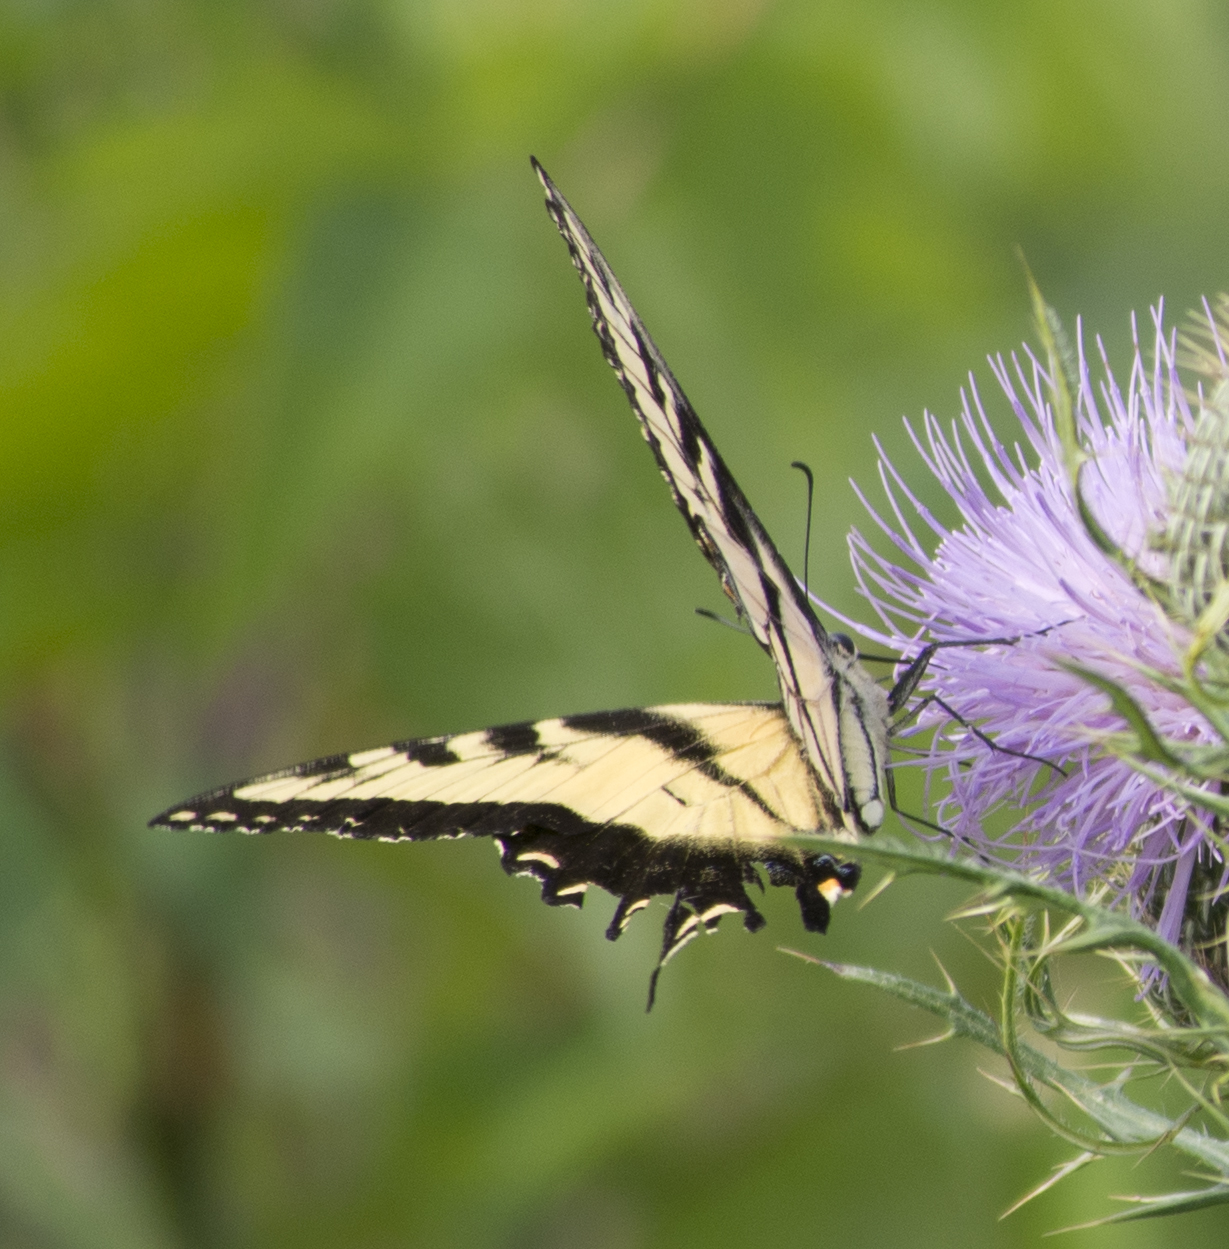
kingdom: Animalia
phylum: Arthropoda
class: Insecta
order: Lepidoptera
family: Papilionidae
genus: Papilio
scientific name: Papilio glaucus
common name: Tiger swallowtail
